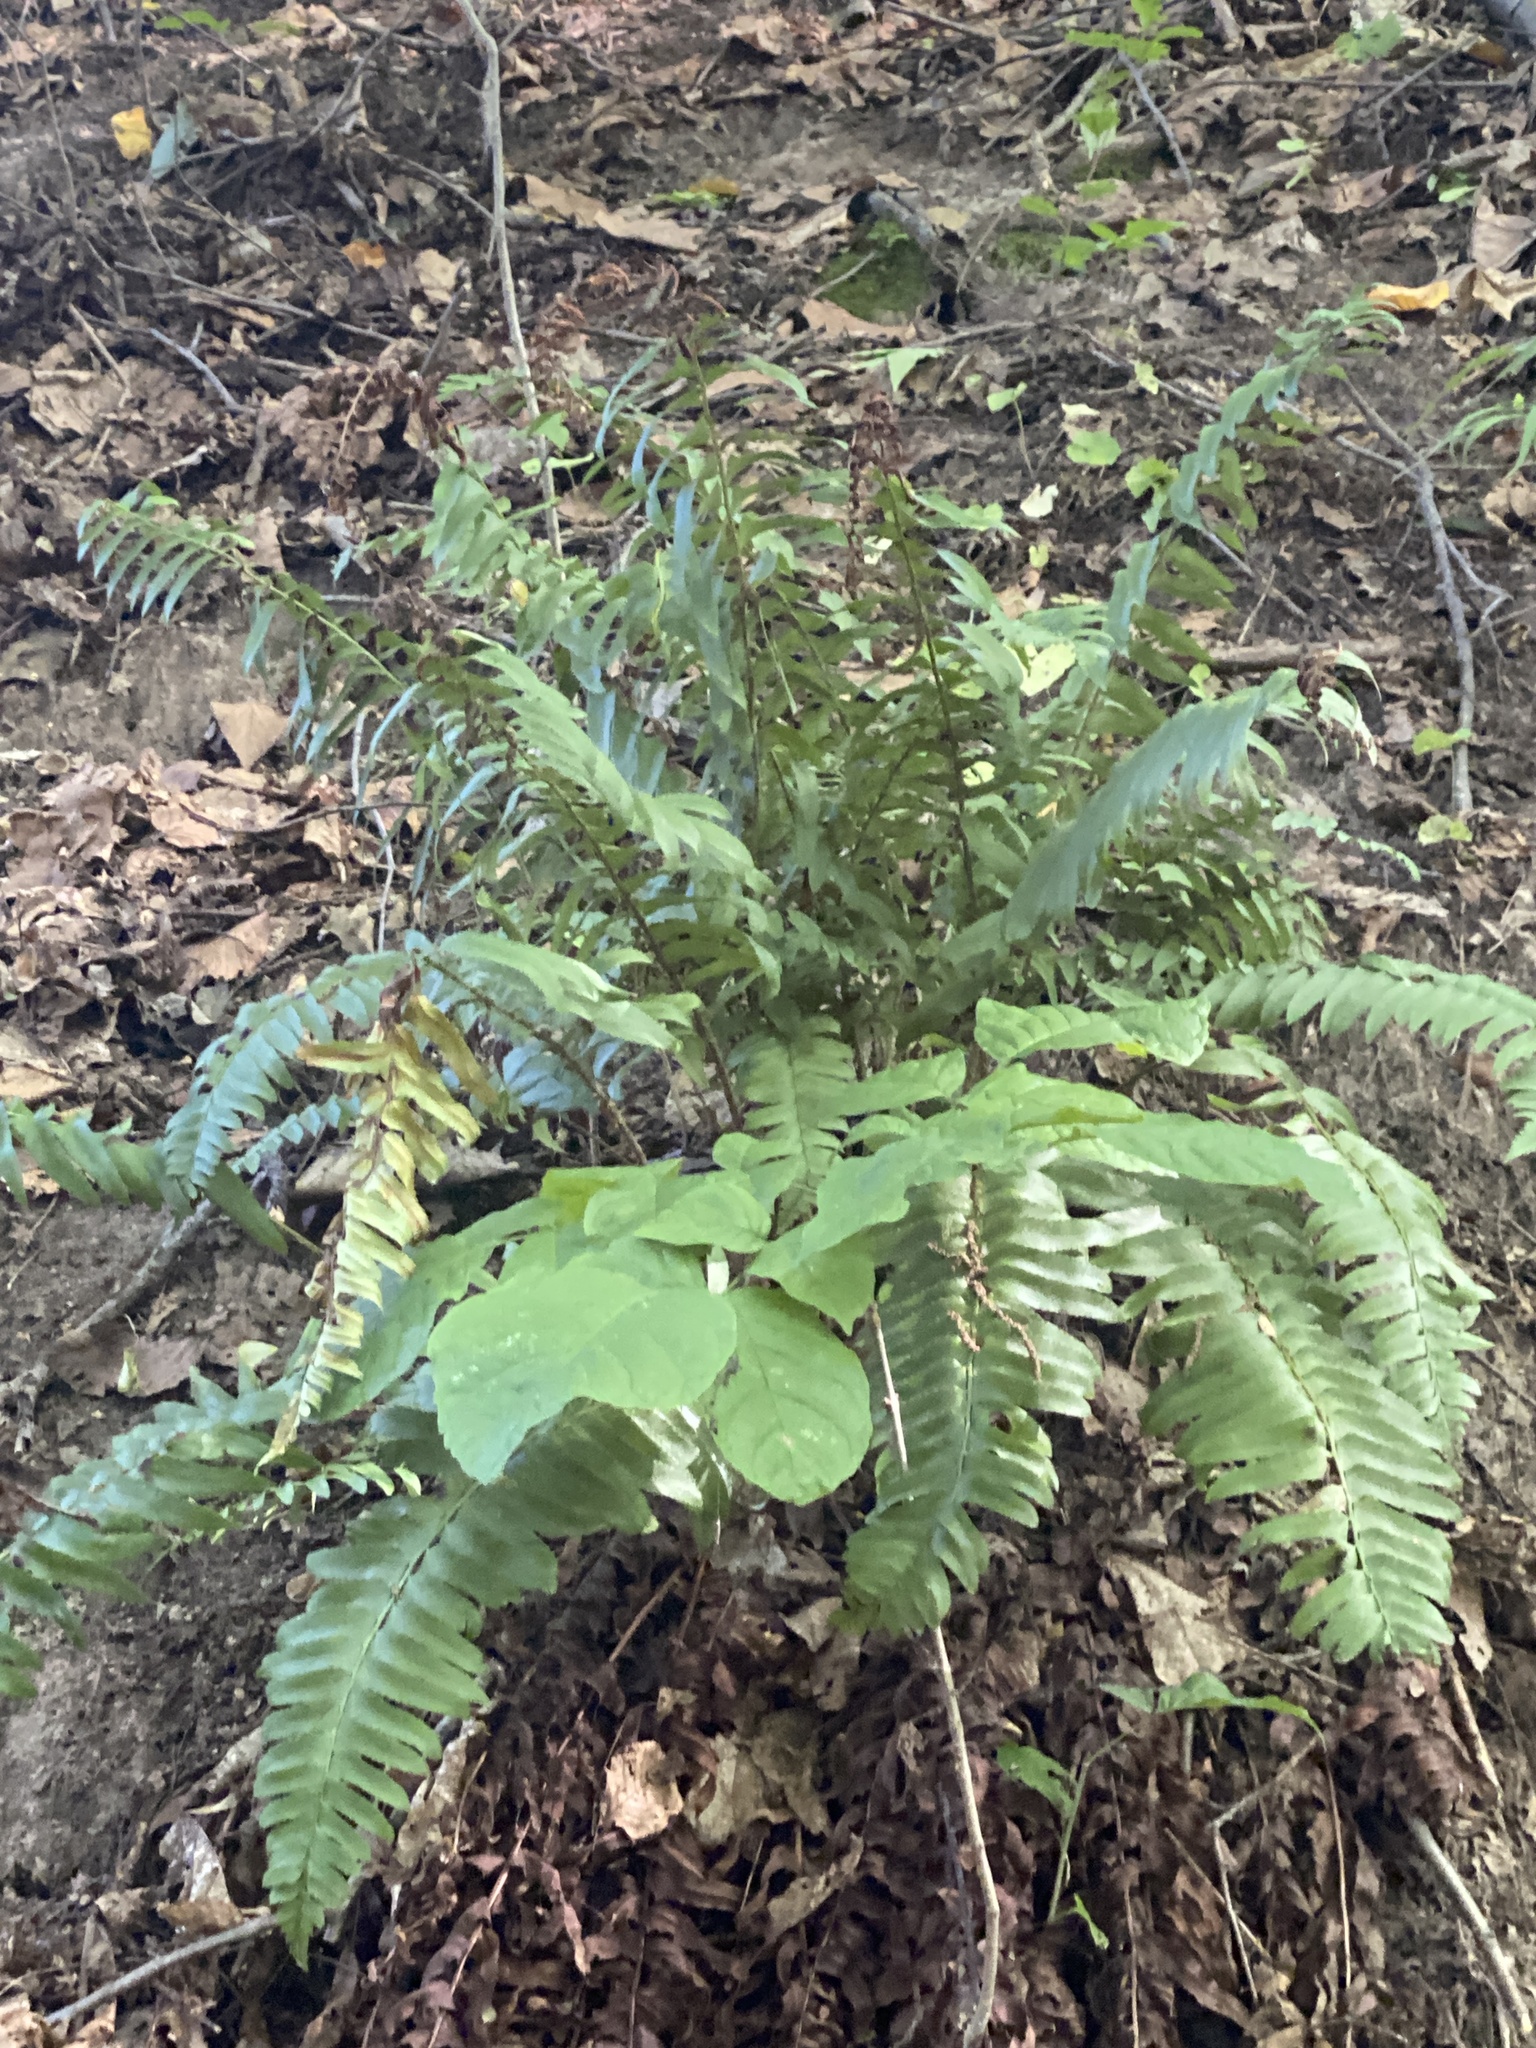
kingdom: Plantae
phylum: Tracheophyta
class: Polypodiopsida
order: Polypodiales
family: Dryopteridaceae
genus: Polystichum
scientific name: Polystichum acrostichoides
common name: Christmas fern
